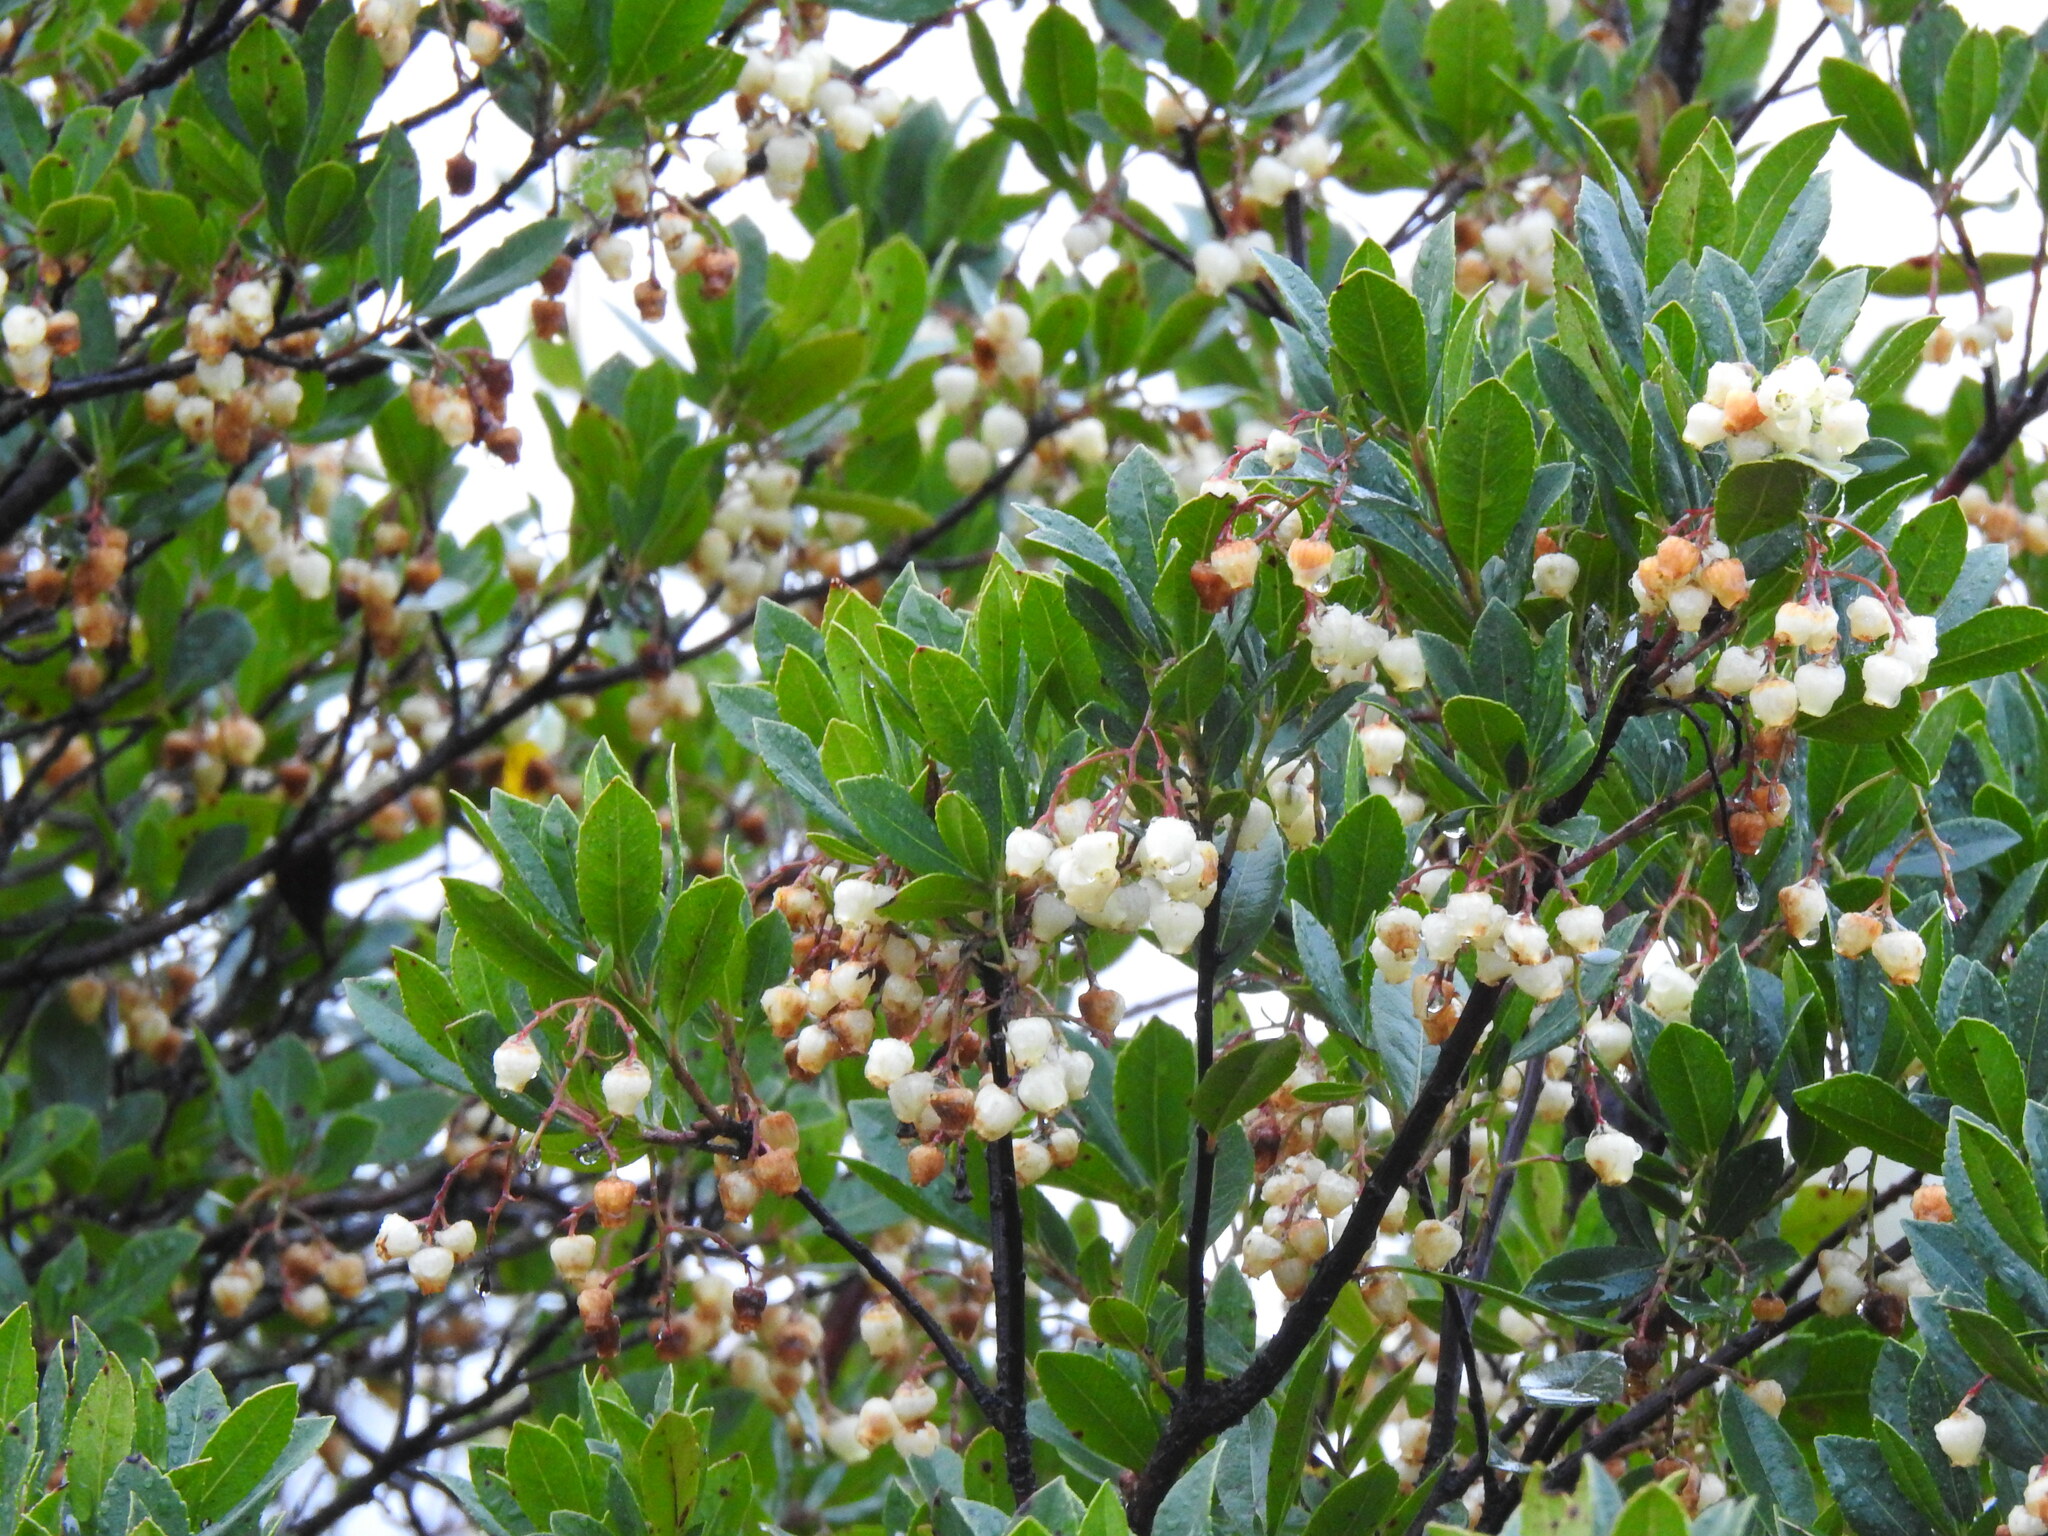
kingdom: Plantae
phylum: Tracheophyta
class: Magnoliopsida
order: Ericales
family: Ericaceae
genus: Arbutus
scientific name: Arbutus unedo
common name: Strawberry-tree
